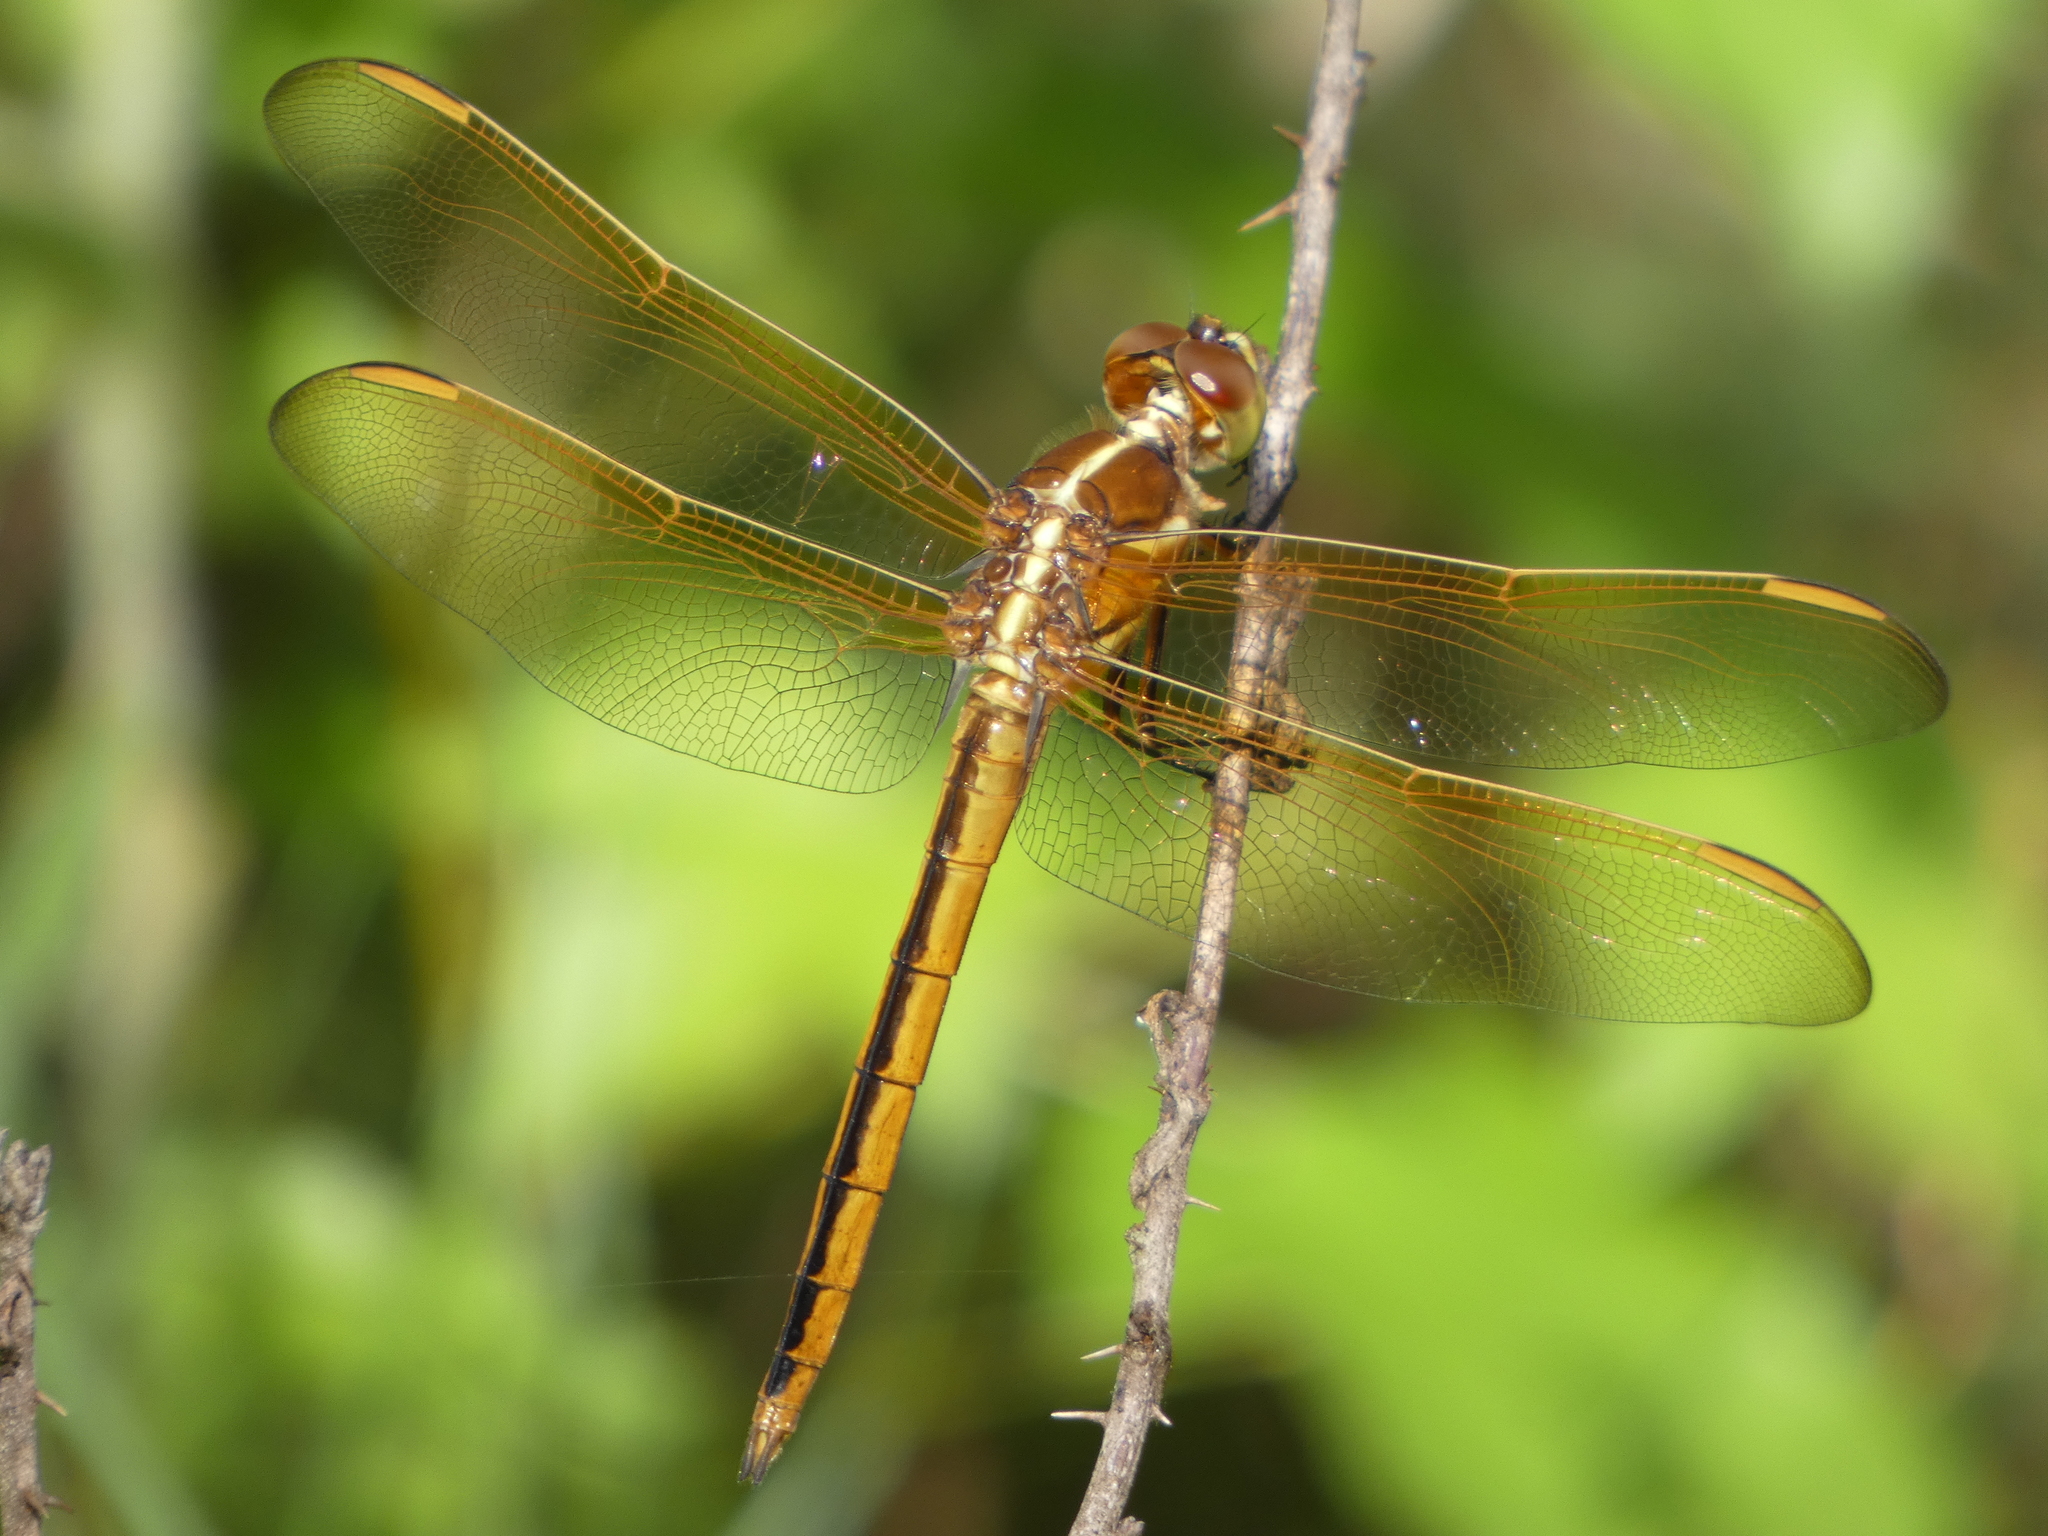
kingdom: Animalia
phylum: Arthropoda
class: Insecta
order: Odonata
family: Libellulidae
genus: Libellula
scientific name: Libellula auripennis
